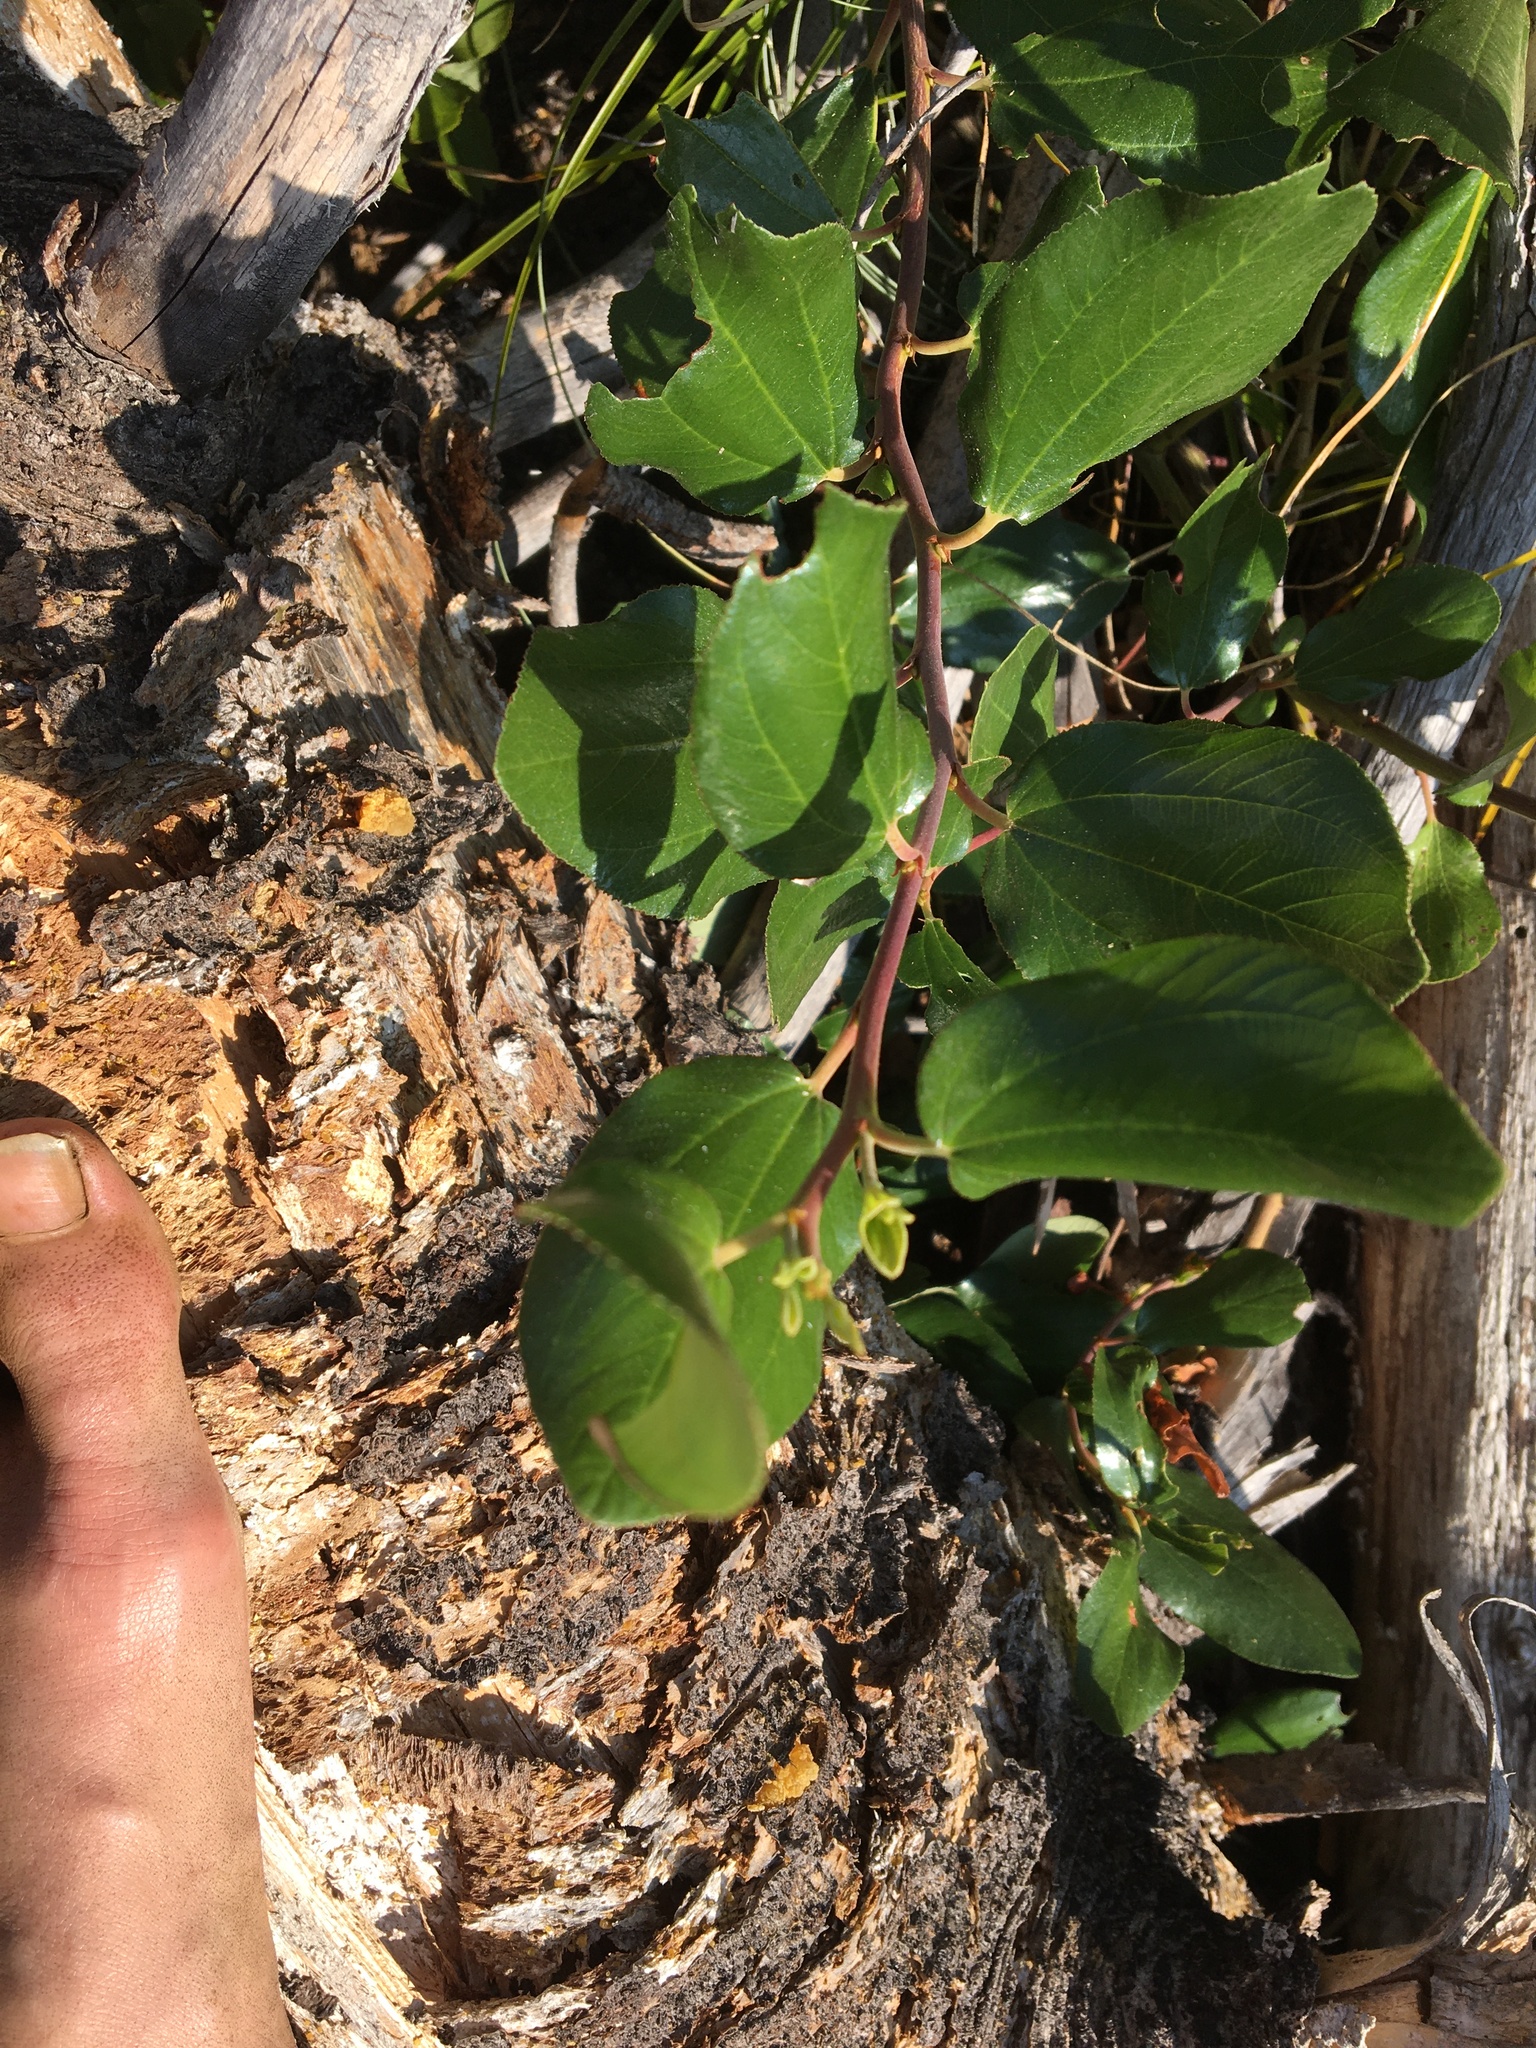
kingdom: Plantae
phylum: Tracheophyta
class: Magnoliopsida
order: Rosales
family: Rhamnaceae
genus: Ceanothus
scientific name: Ceanothus velutinus
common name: Snowbrush
